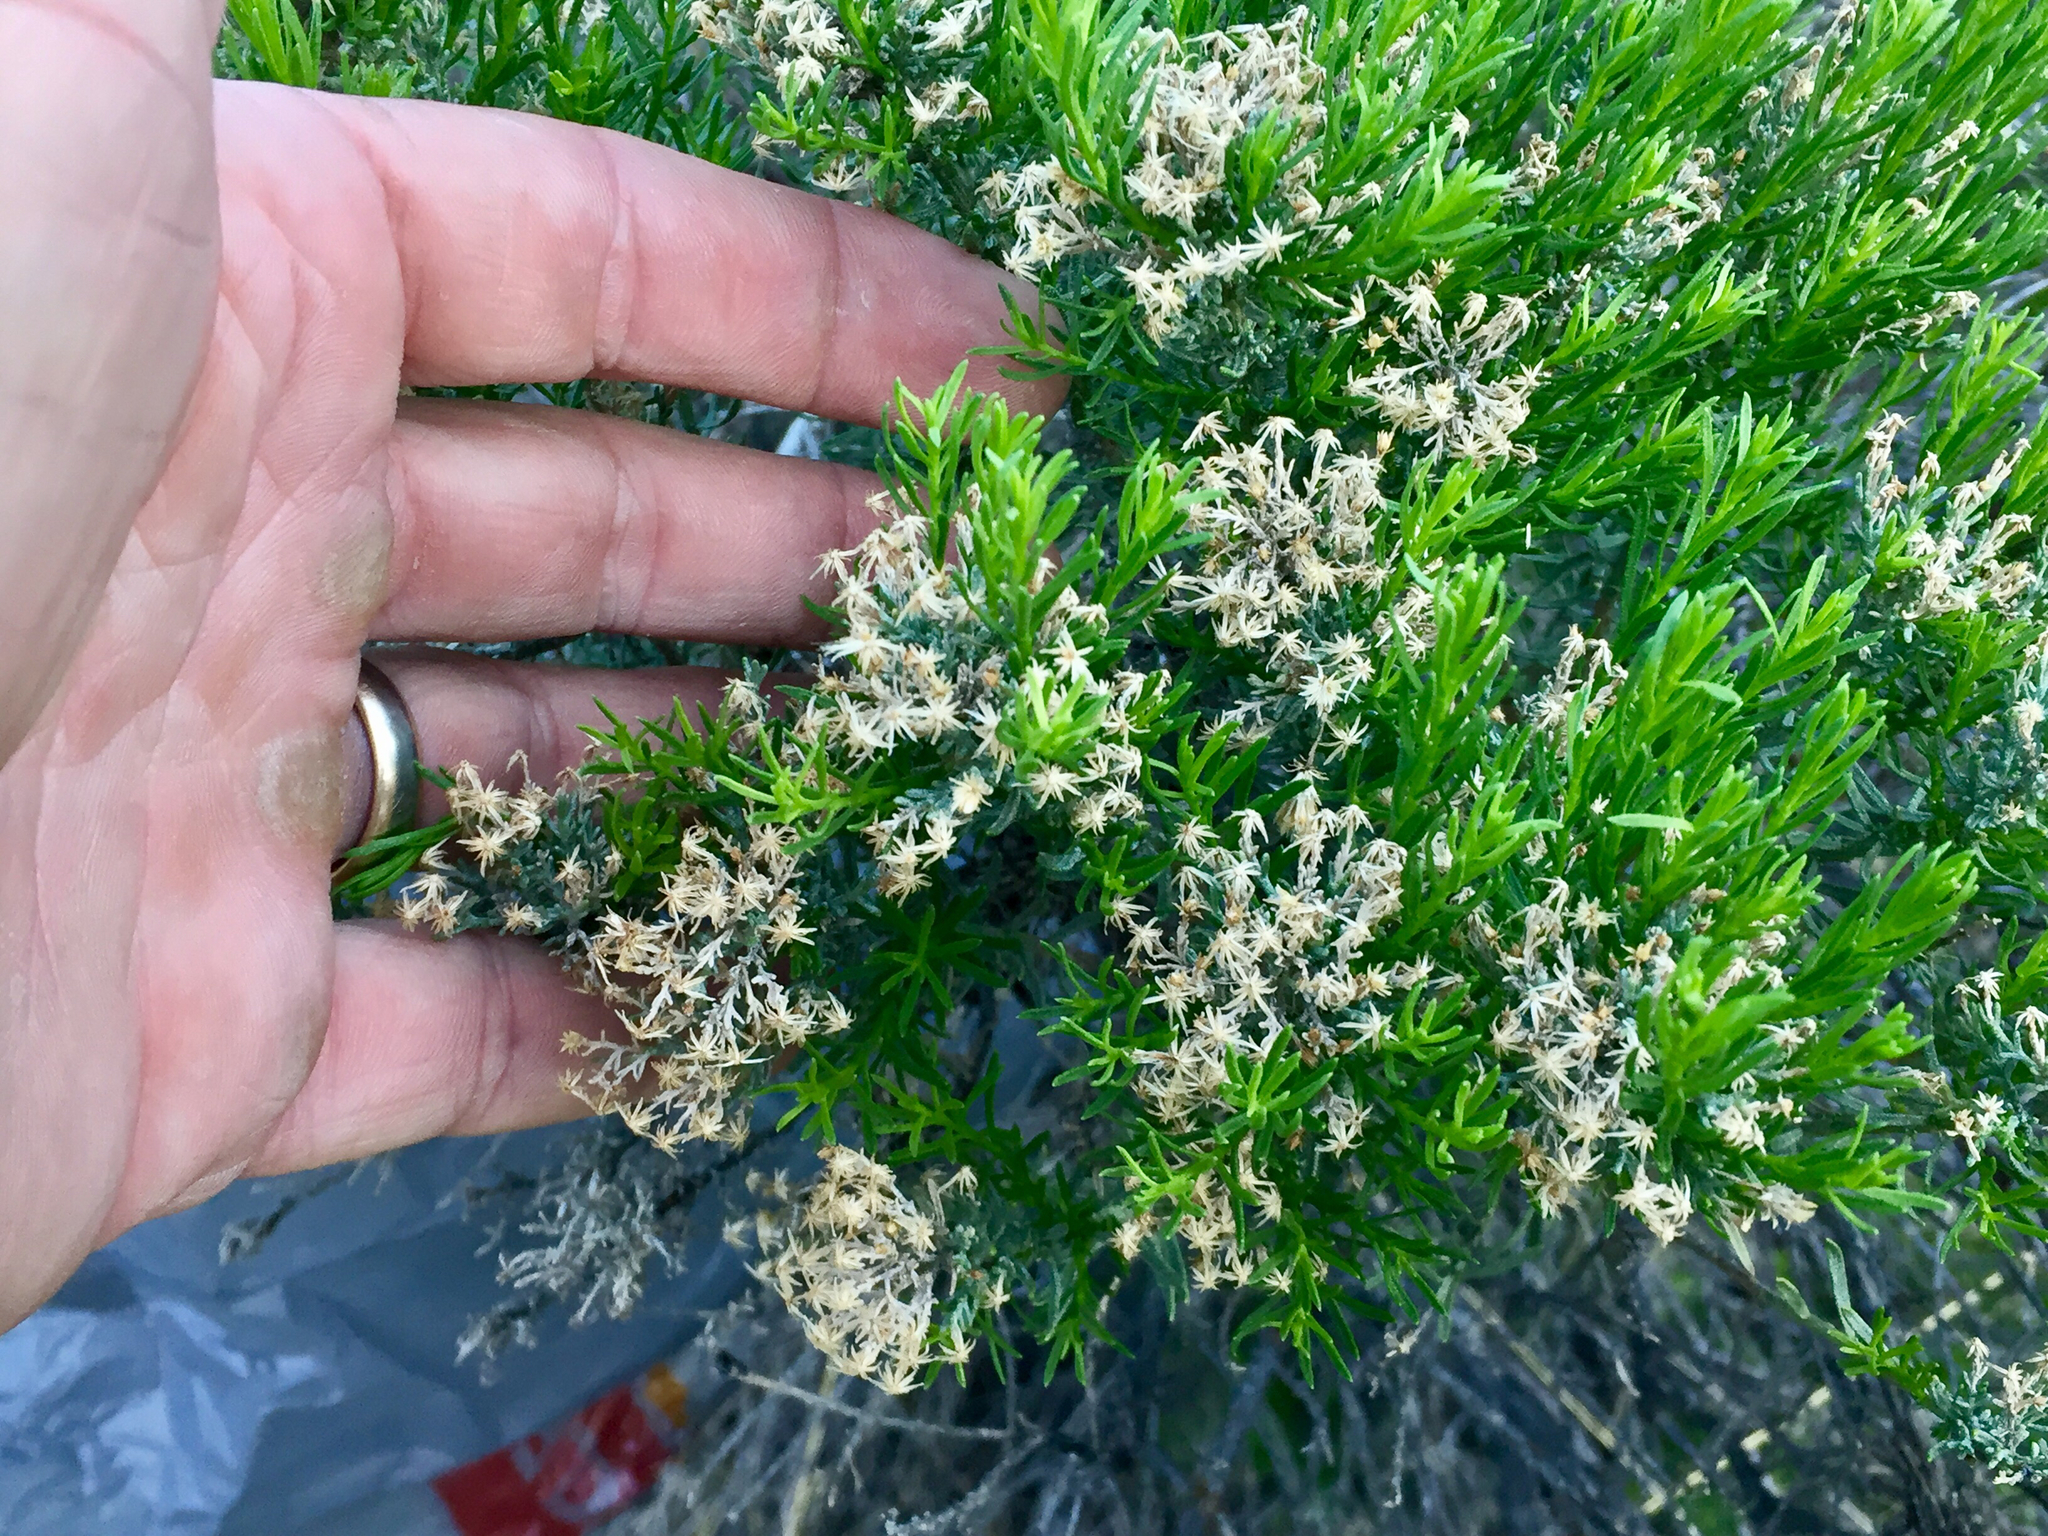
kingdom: Plantae
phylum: Tracheophyta
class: Magnoliopsida
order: Asterales
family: Asteraceae
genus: Ericameria
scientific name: Ericameria laricifolia
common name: Turpentine-bush
